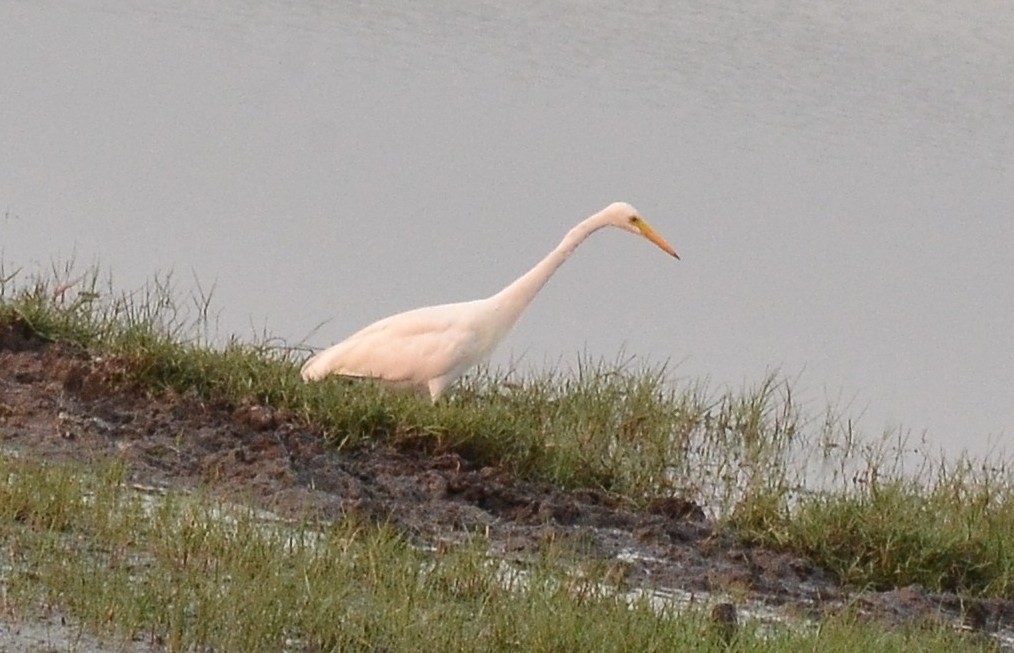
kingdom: Animalia
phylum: Chordata
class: Aves
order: Pelecaniformes
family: Ardeidae
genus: Egretta
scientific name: Egretta intermedia
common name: Intermediate egret
